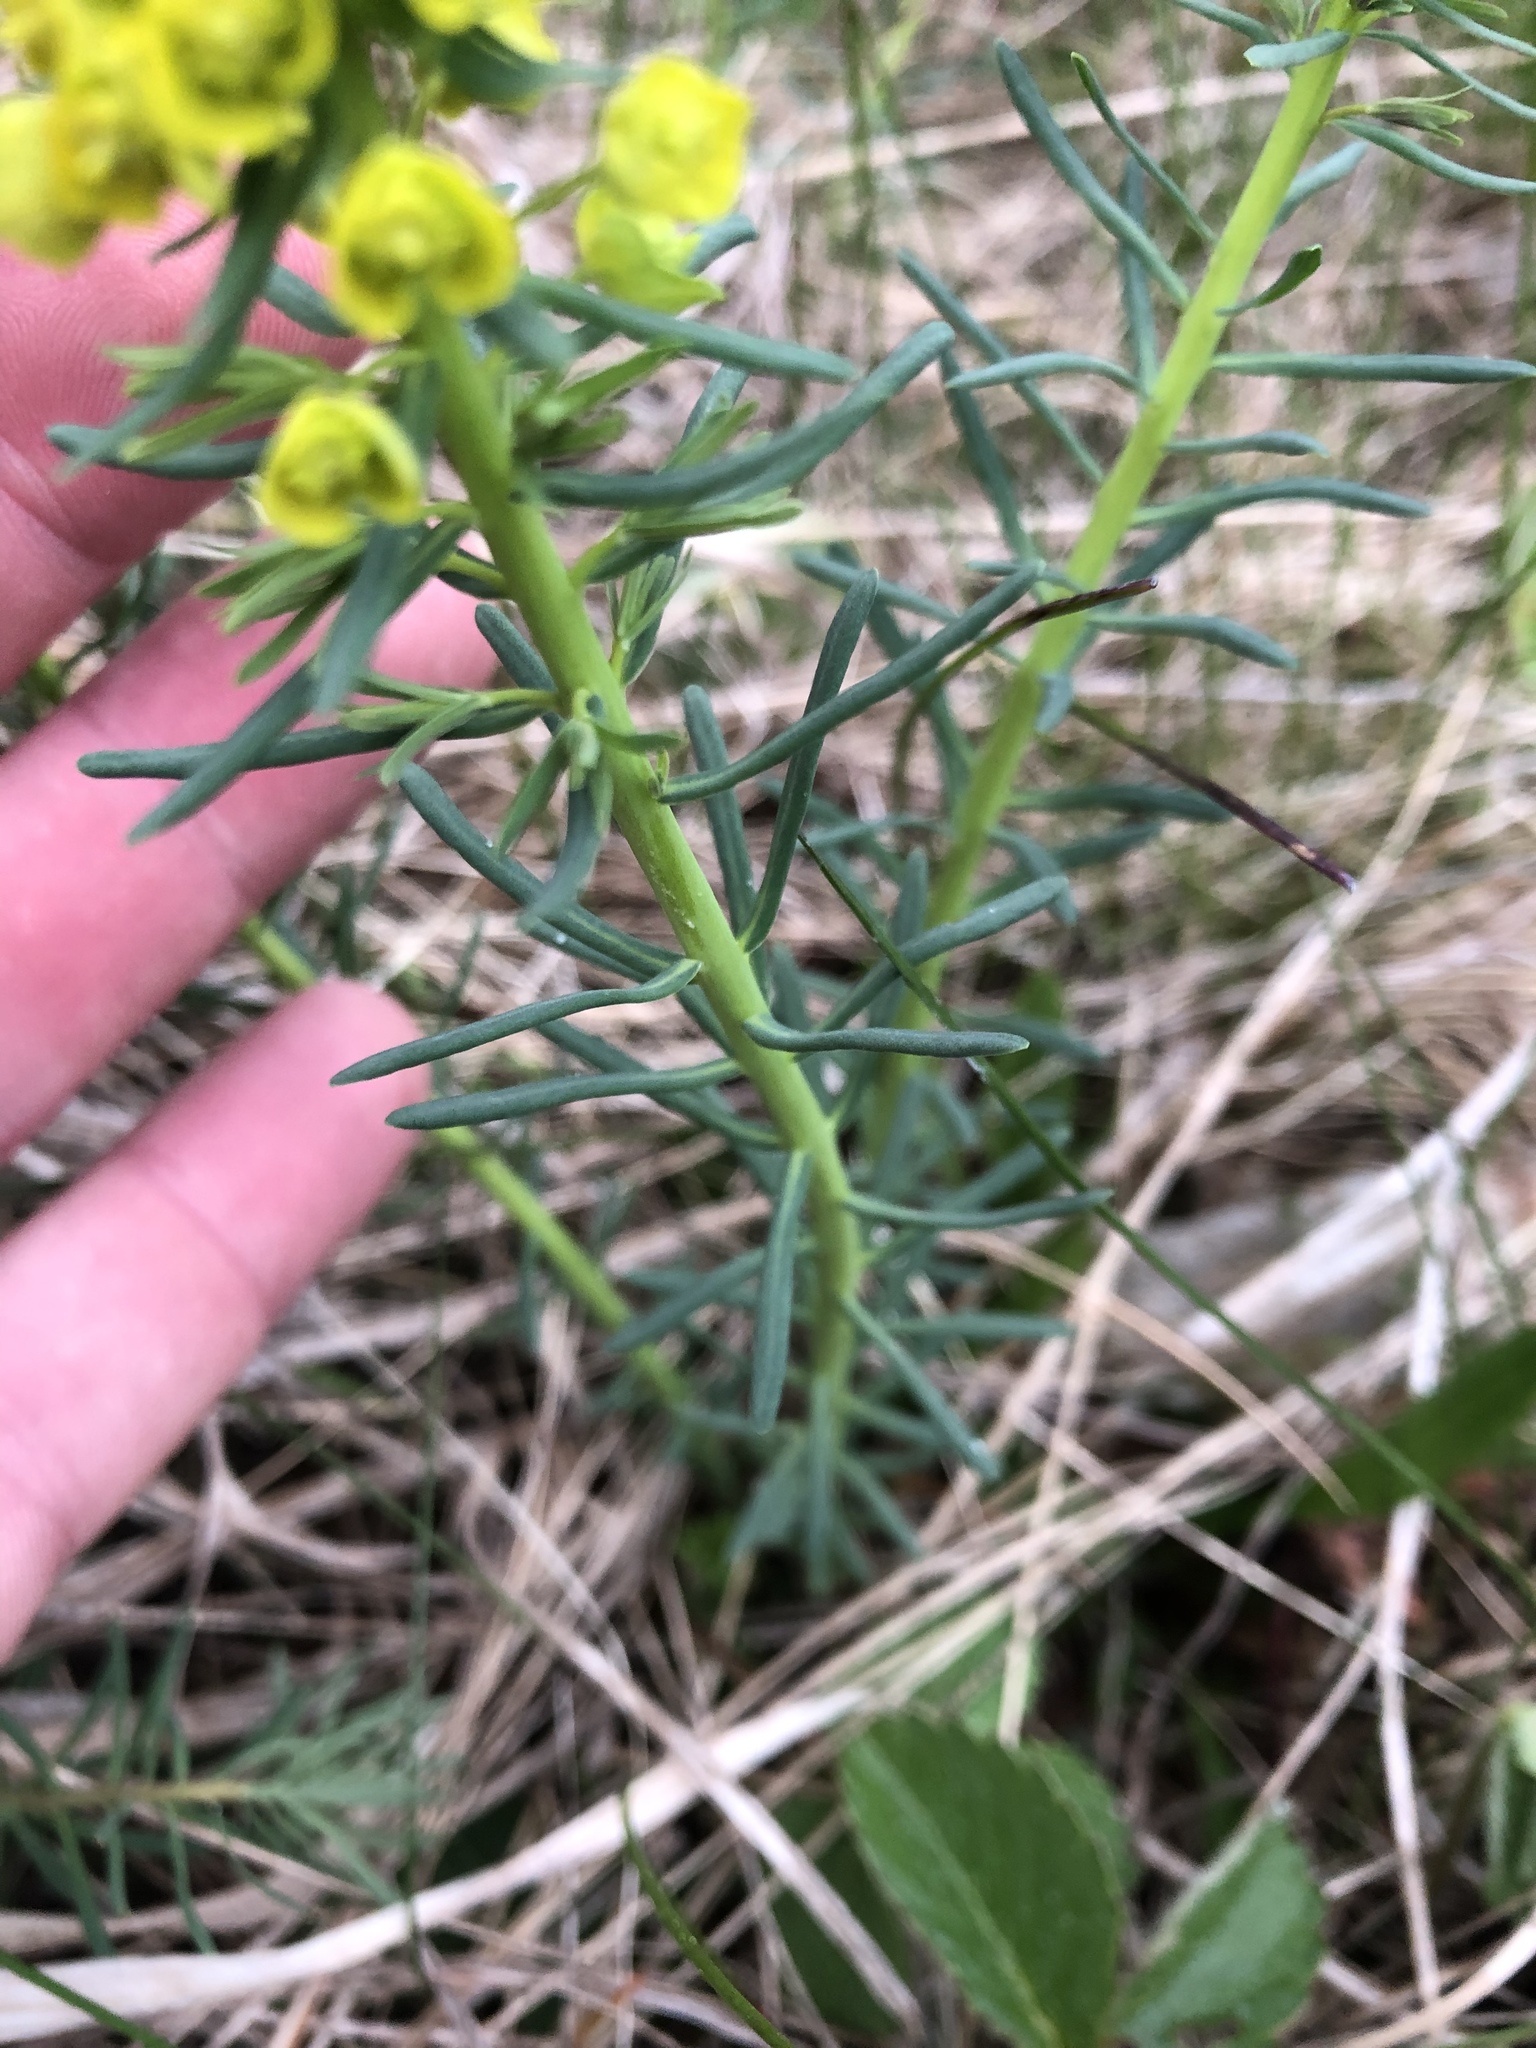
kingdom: Plantae
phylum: Tracheophyta
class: Magnoliopsida
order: Malpighiales
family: Euphorbiaceae
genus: Euphorbia
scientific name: Euphorbia cyparissias
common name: Cypress spurge
